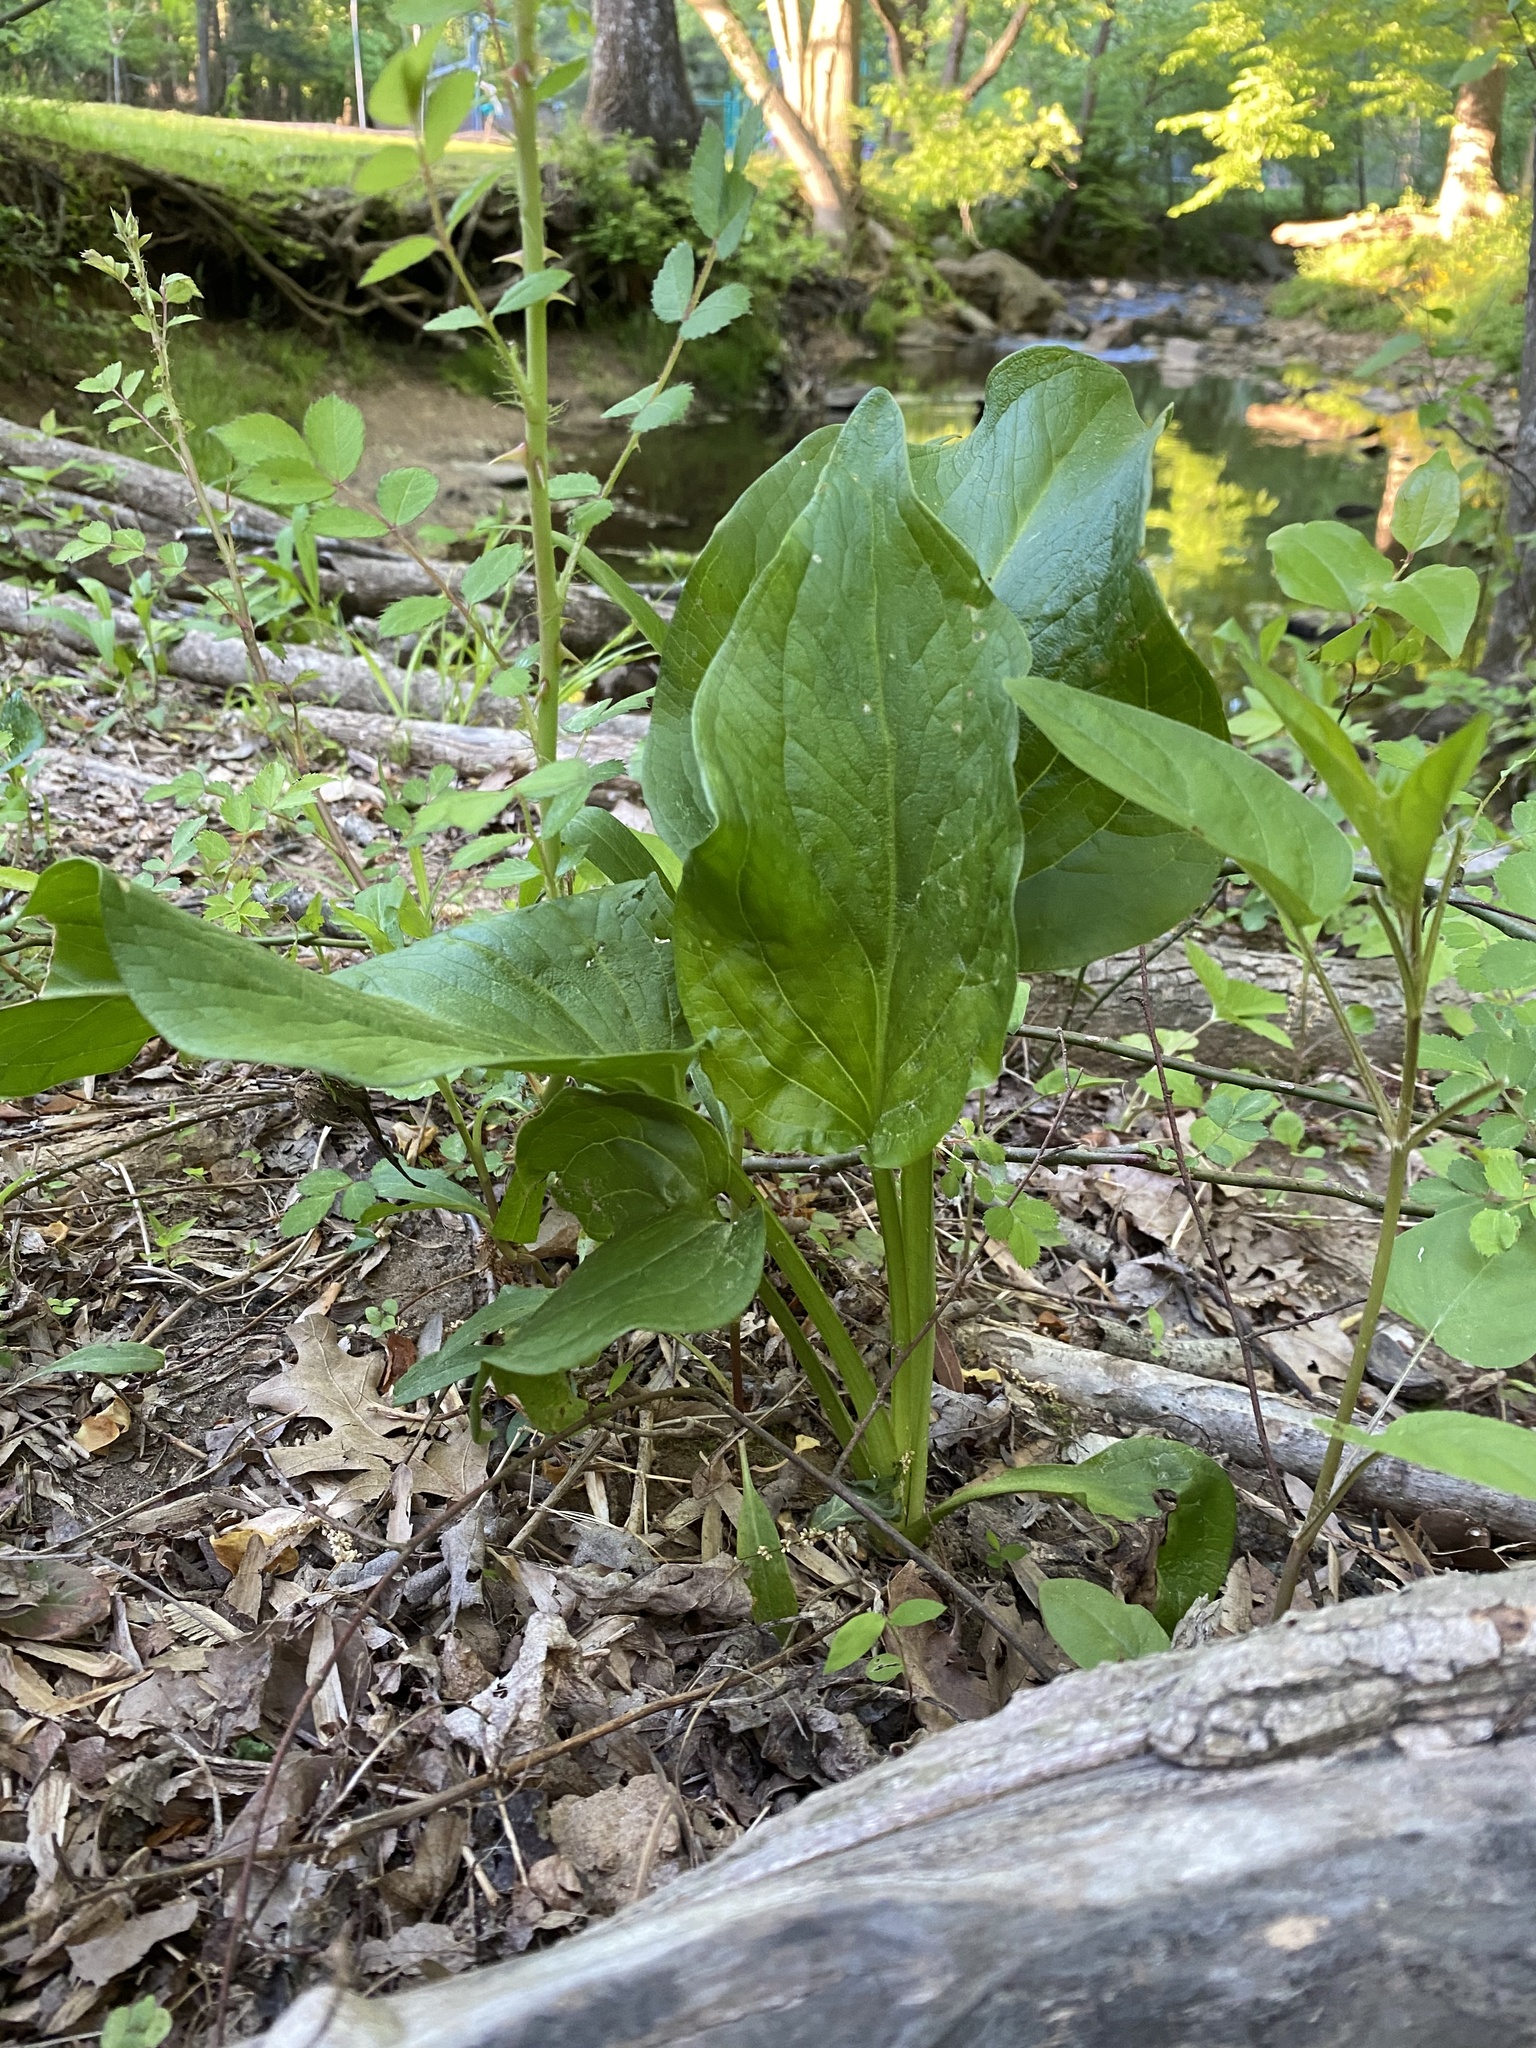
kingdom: Plantae
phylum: Tracheophyta
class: Liliopsida
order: Alismatales
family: Araceae
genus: Symplocarpus
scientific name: Symplocarpus foetidus
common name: Eastern skunk cabbage
